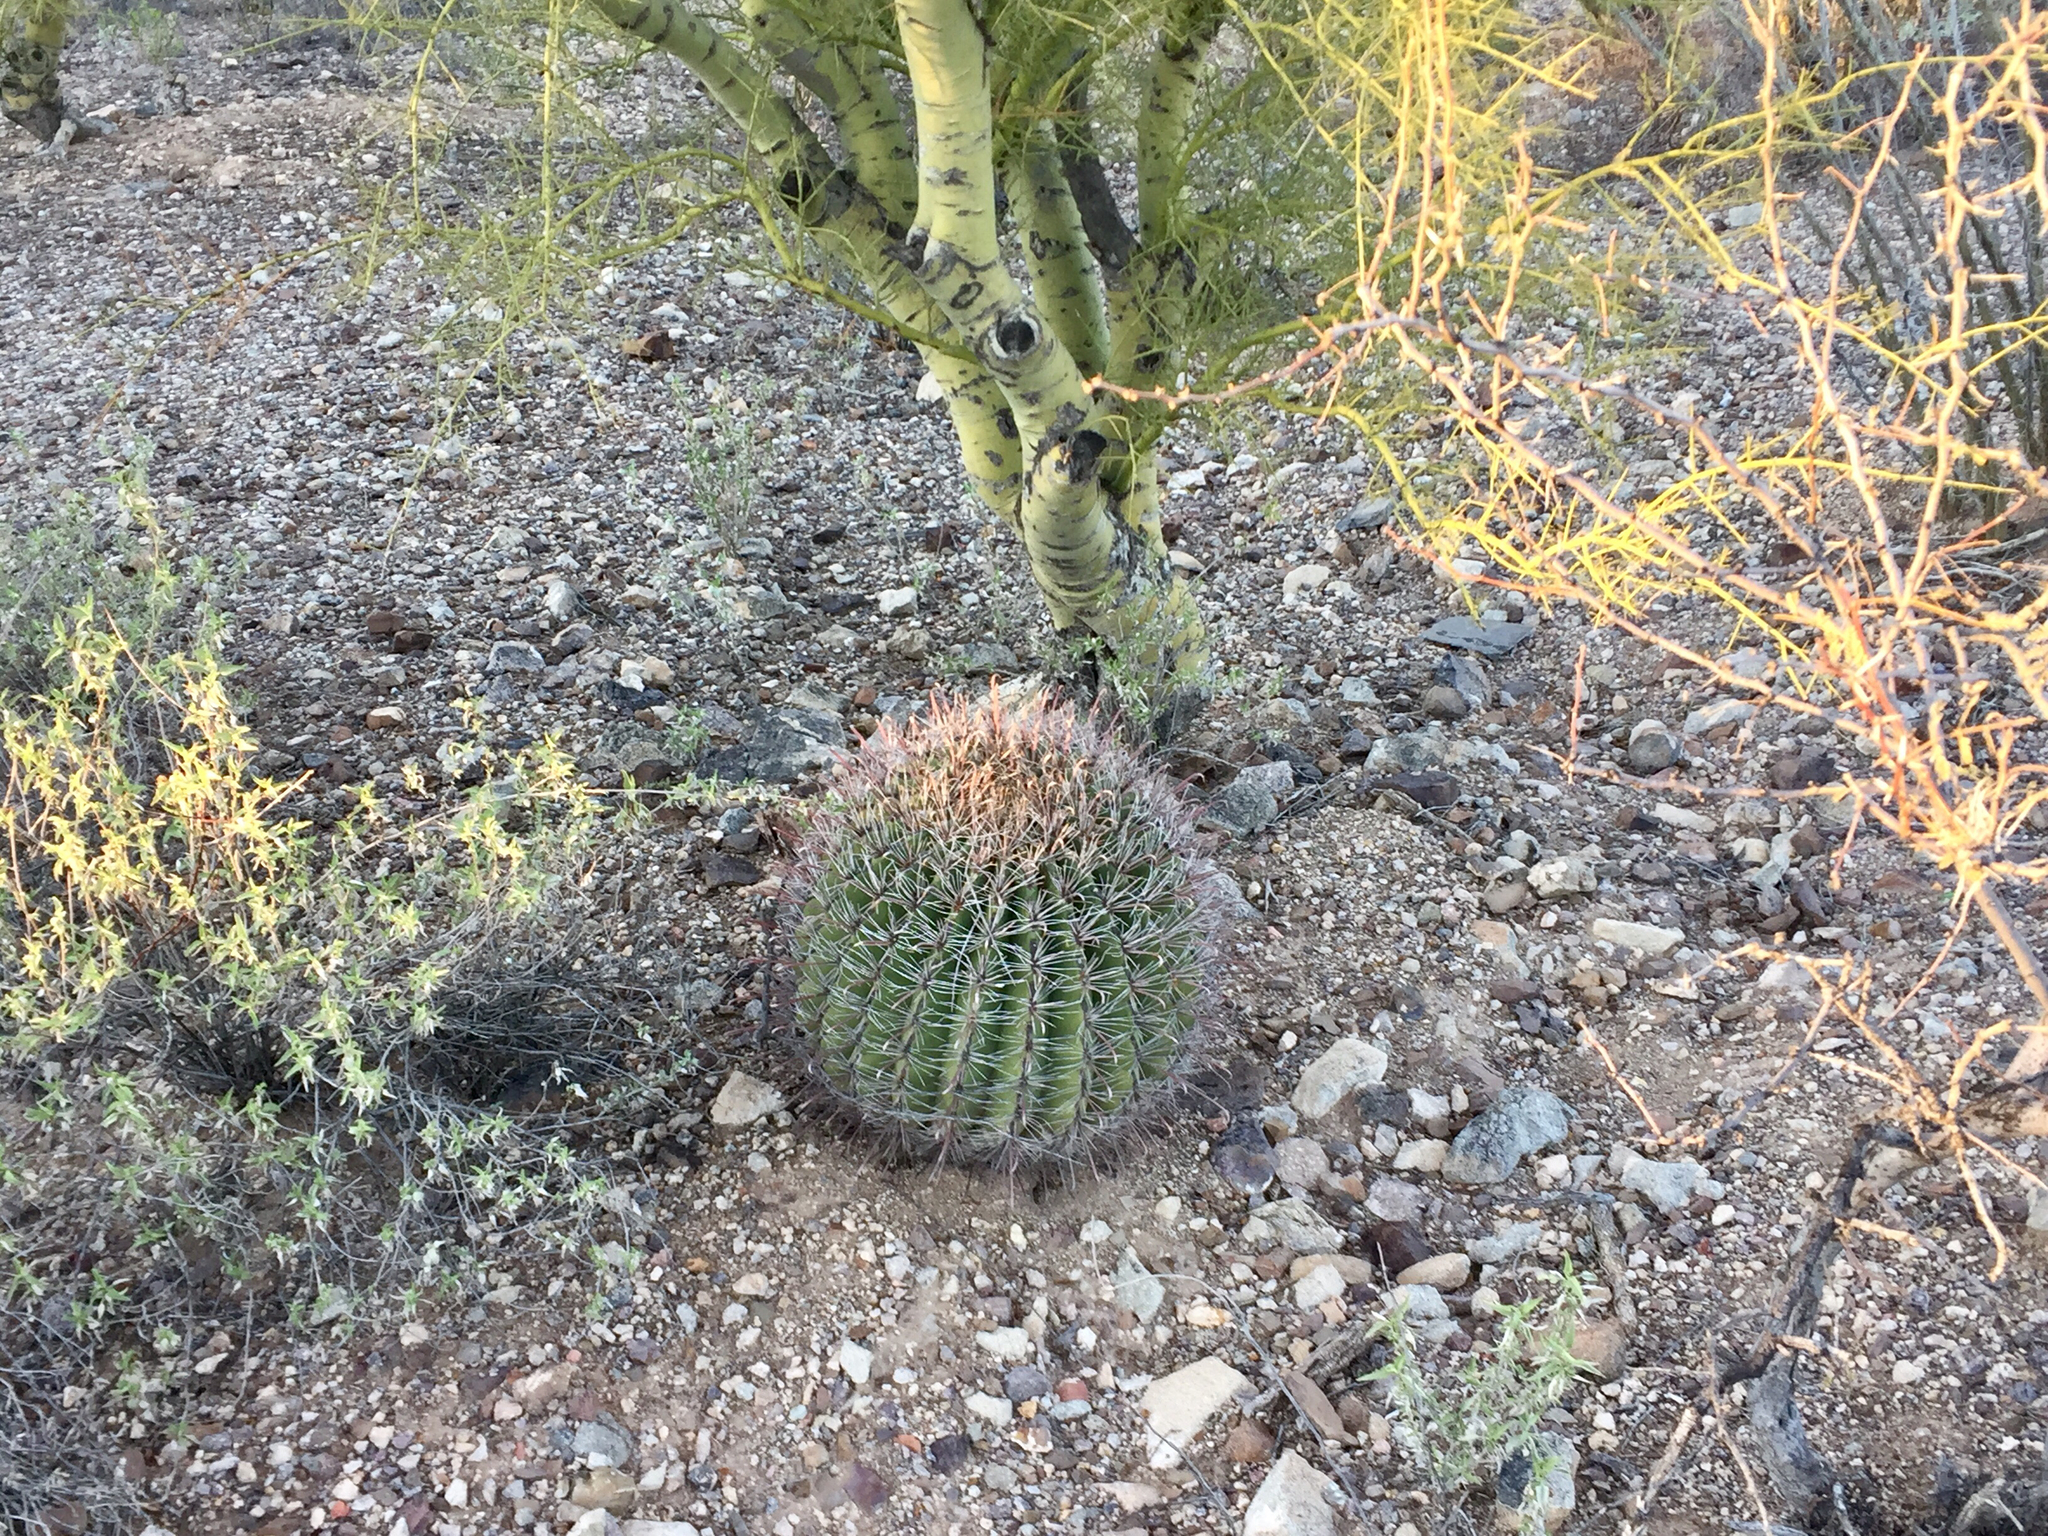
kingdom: Plantae
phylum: Tracheophyta
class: Magnoliopsida
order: Caryophyllales
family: Cactaceae
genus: Ferocactus
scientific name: Ferocactus wislizeni
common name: Candy barrel cactus
